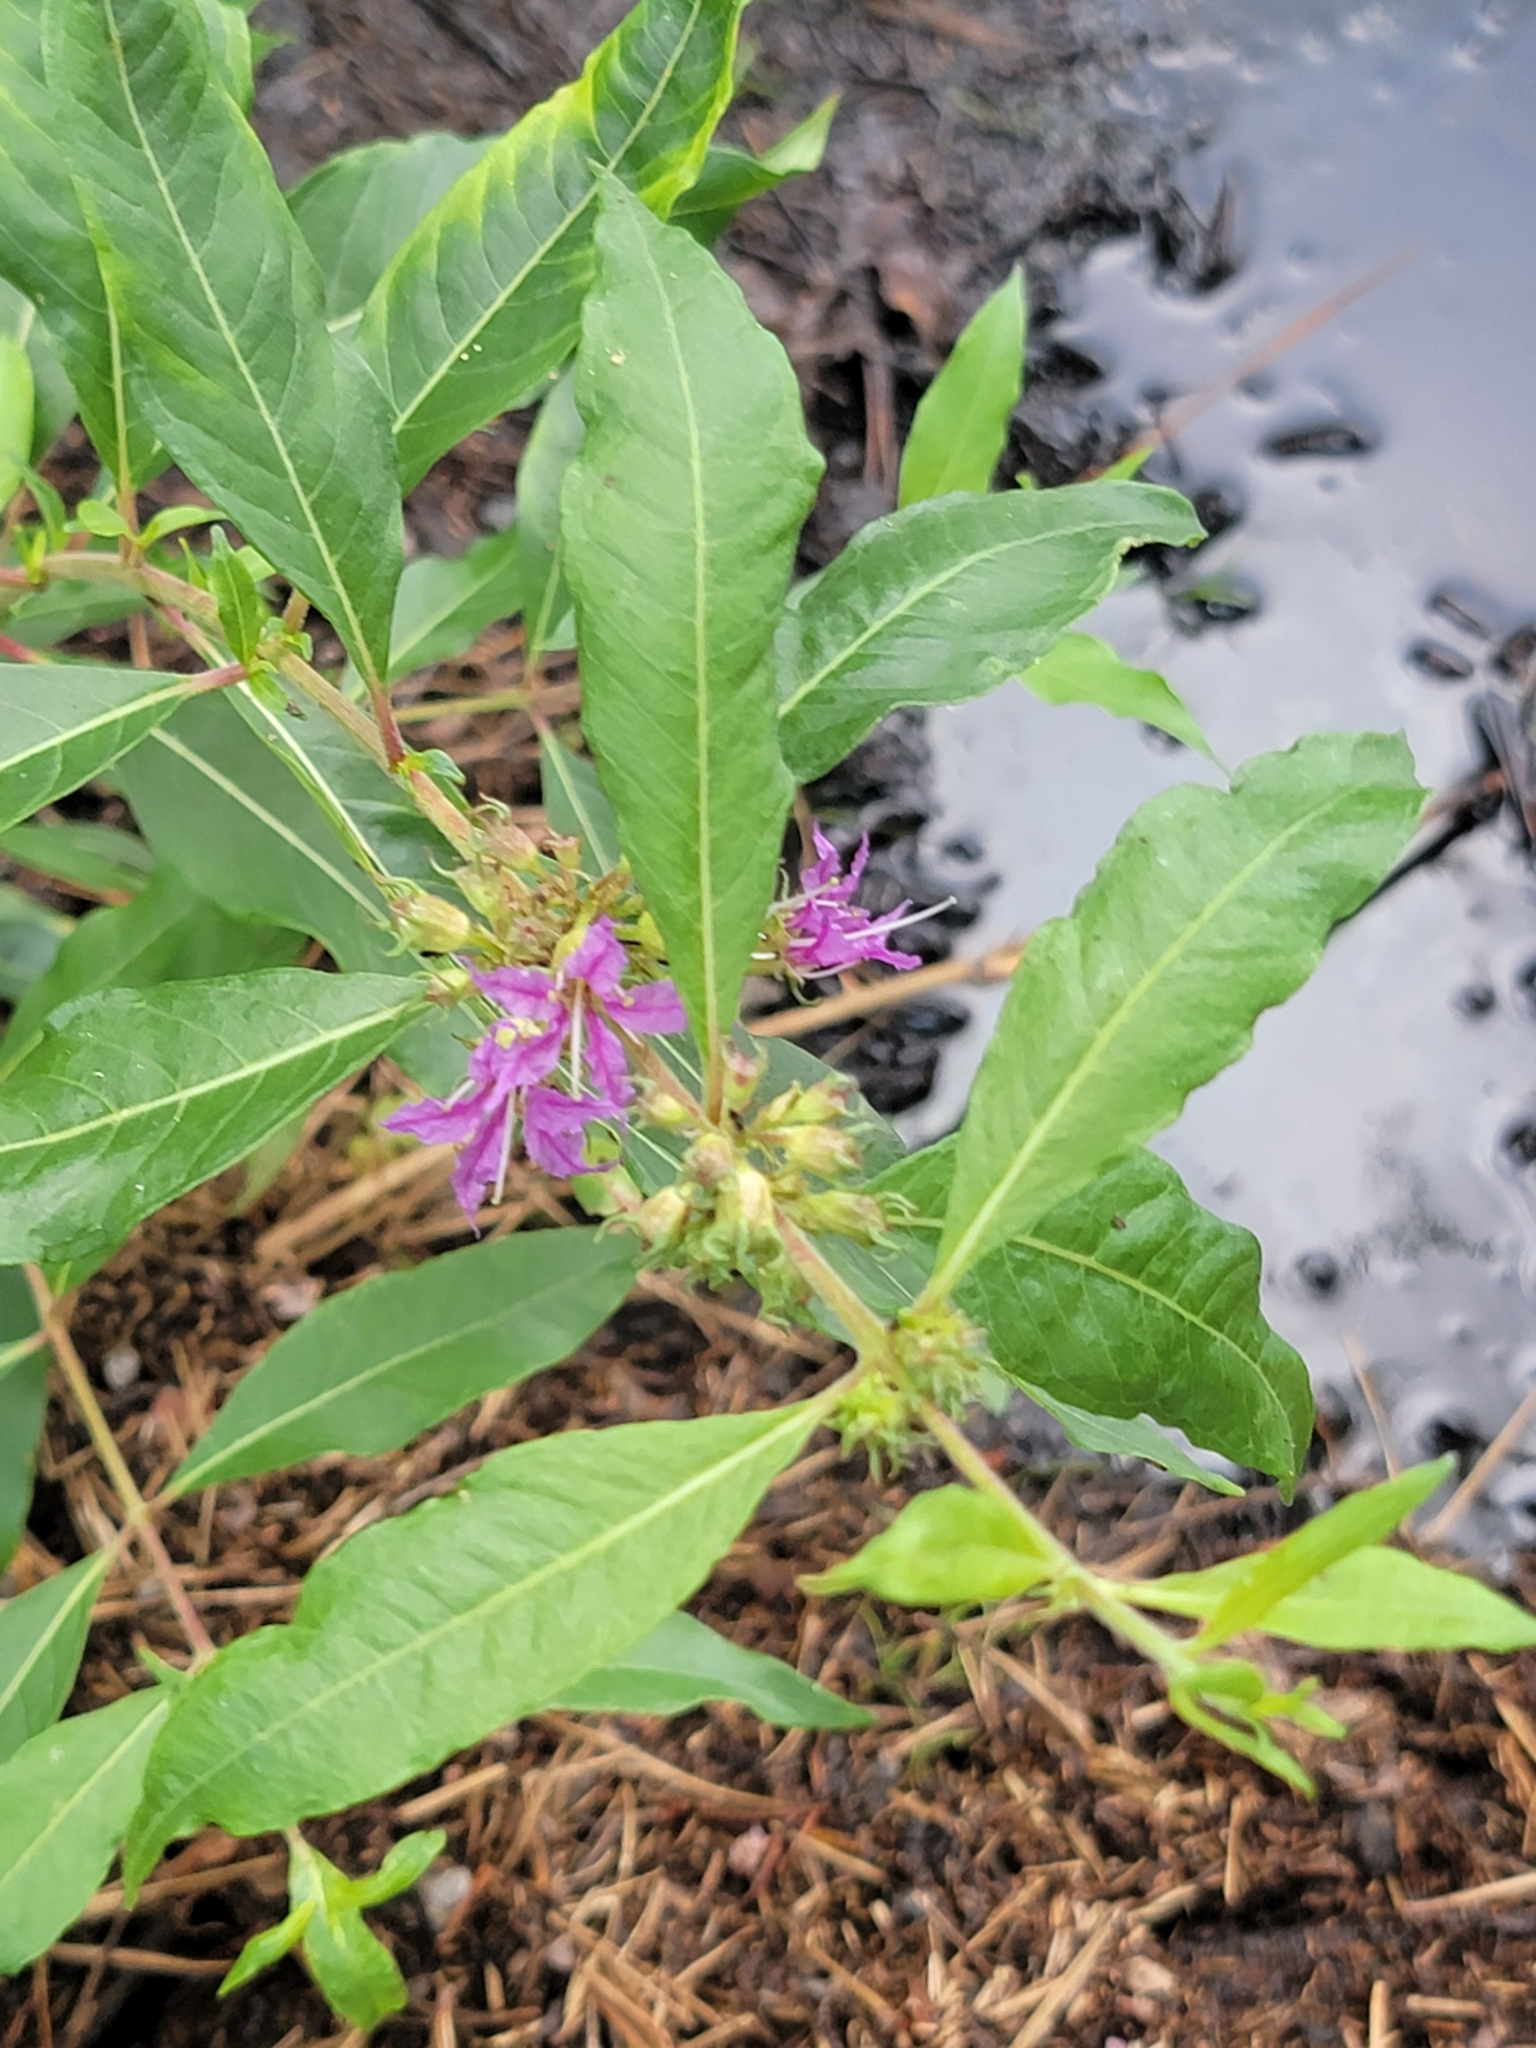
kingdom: Plantae
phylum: Tracheophyta
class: Magnoliopsida
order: Myrtales
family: Lythraceae
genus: Decodon
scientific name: Decodon verticillatus
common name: Hairy swamp loosestrife
